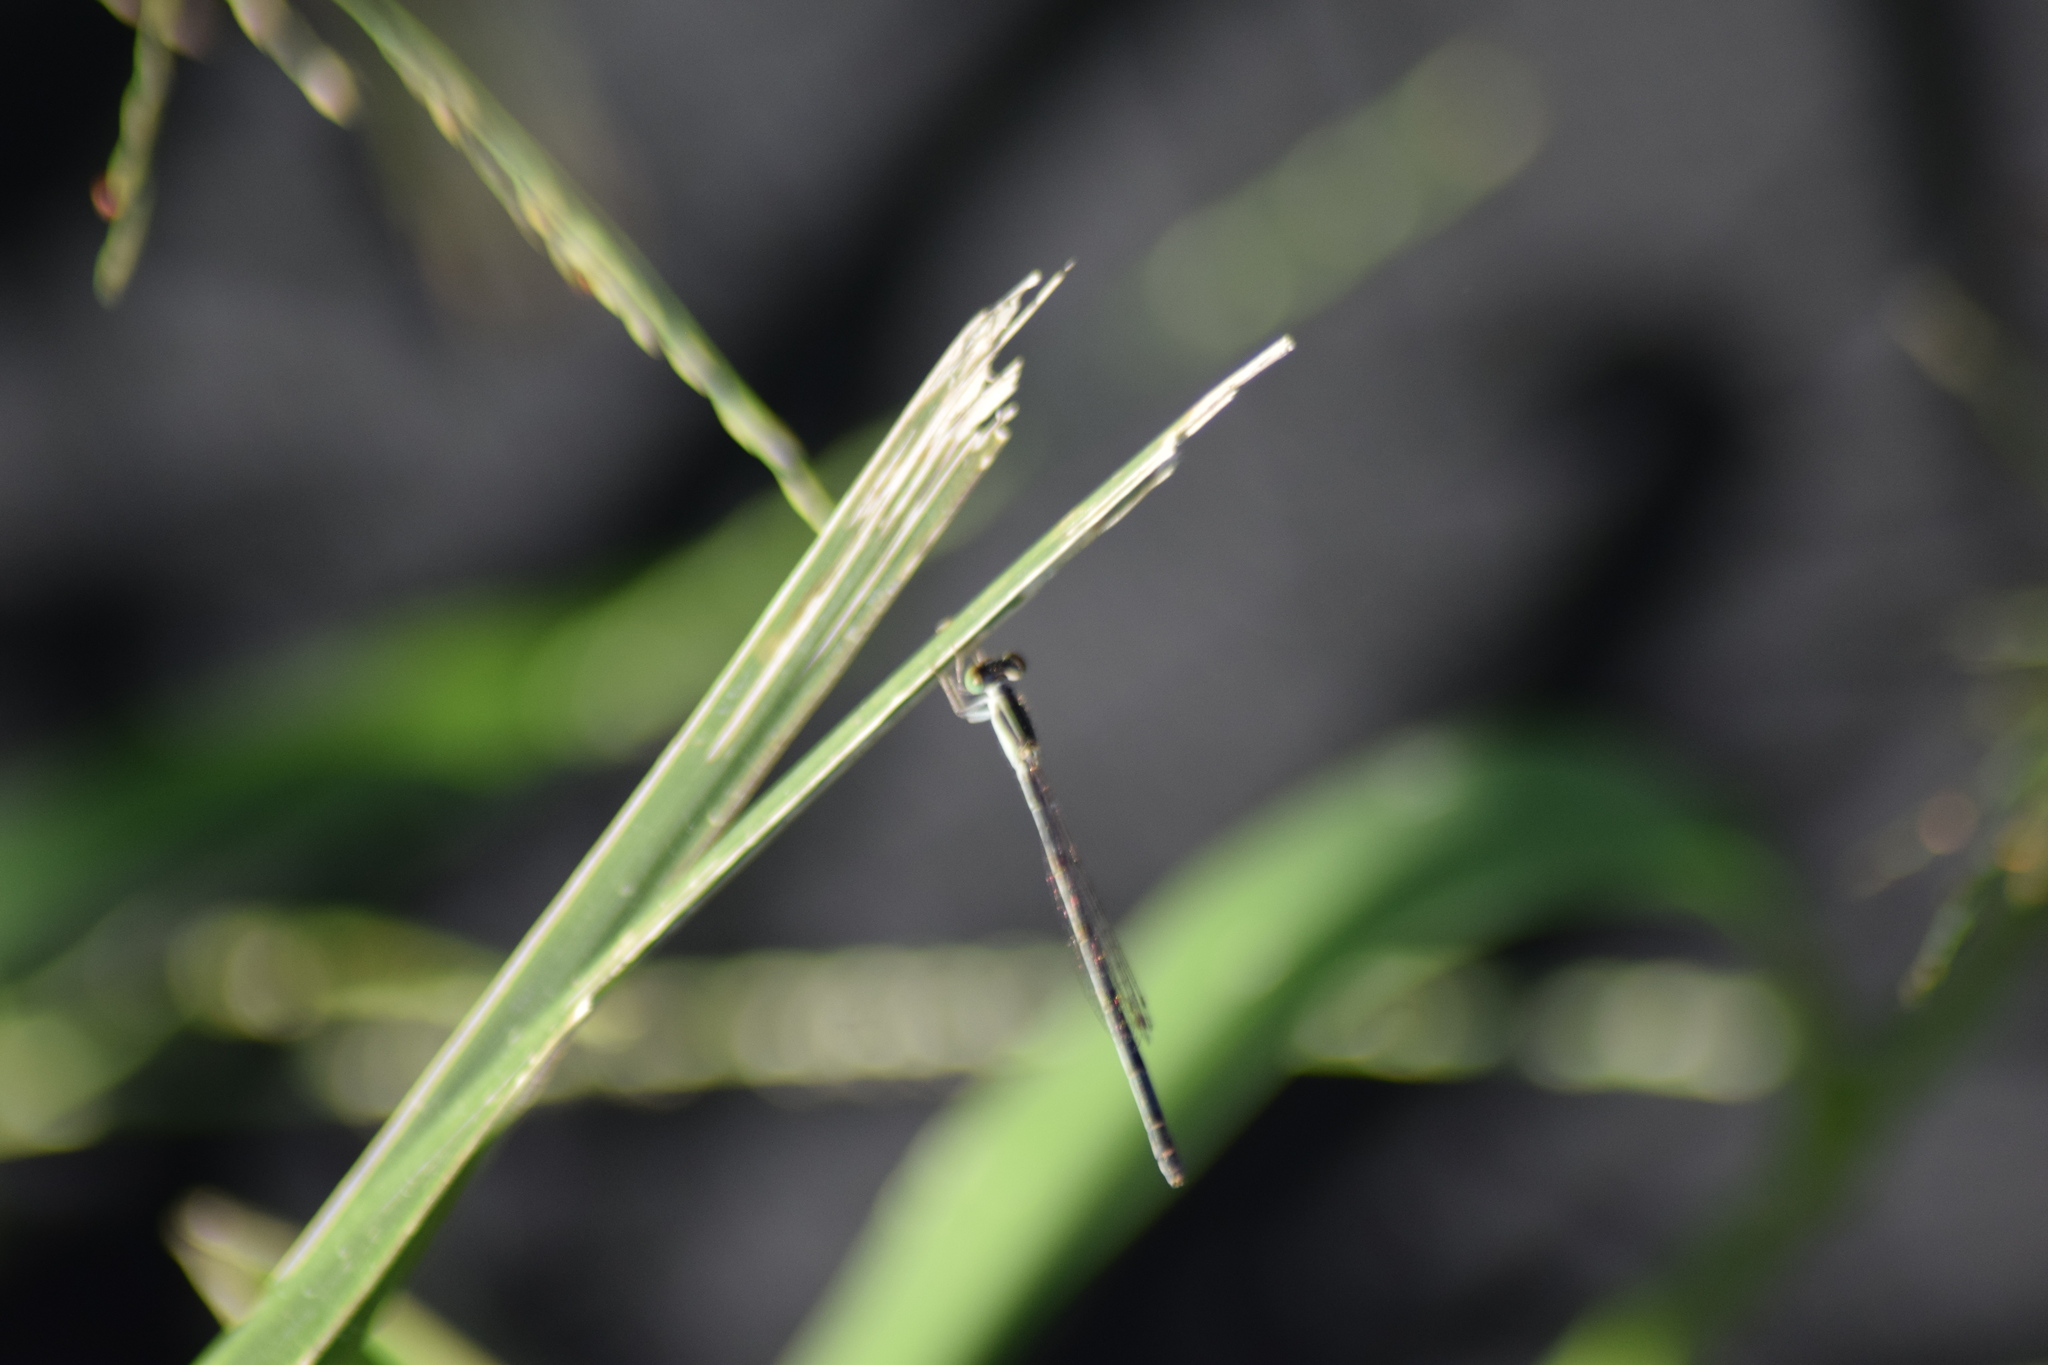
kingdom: Animalia
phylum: Arthropoda
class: Insecta
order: Odonata
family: Coenagrionidae
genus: Ischnura
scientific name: Ischnura hastata
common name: Citrine forktail
